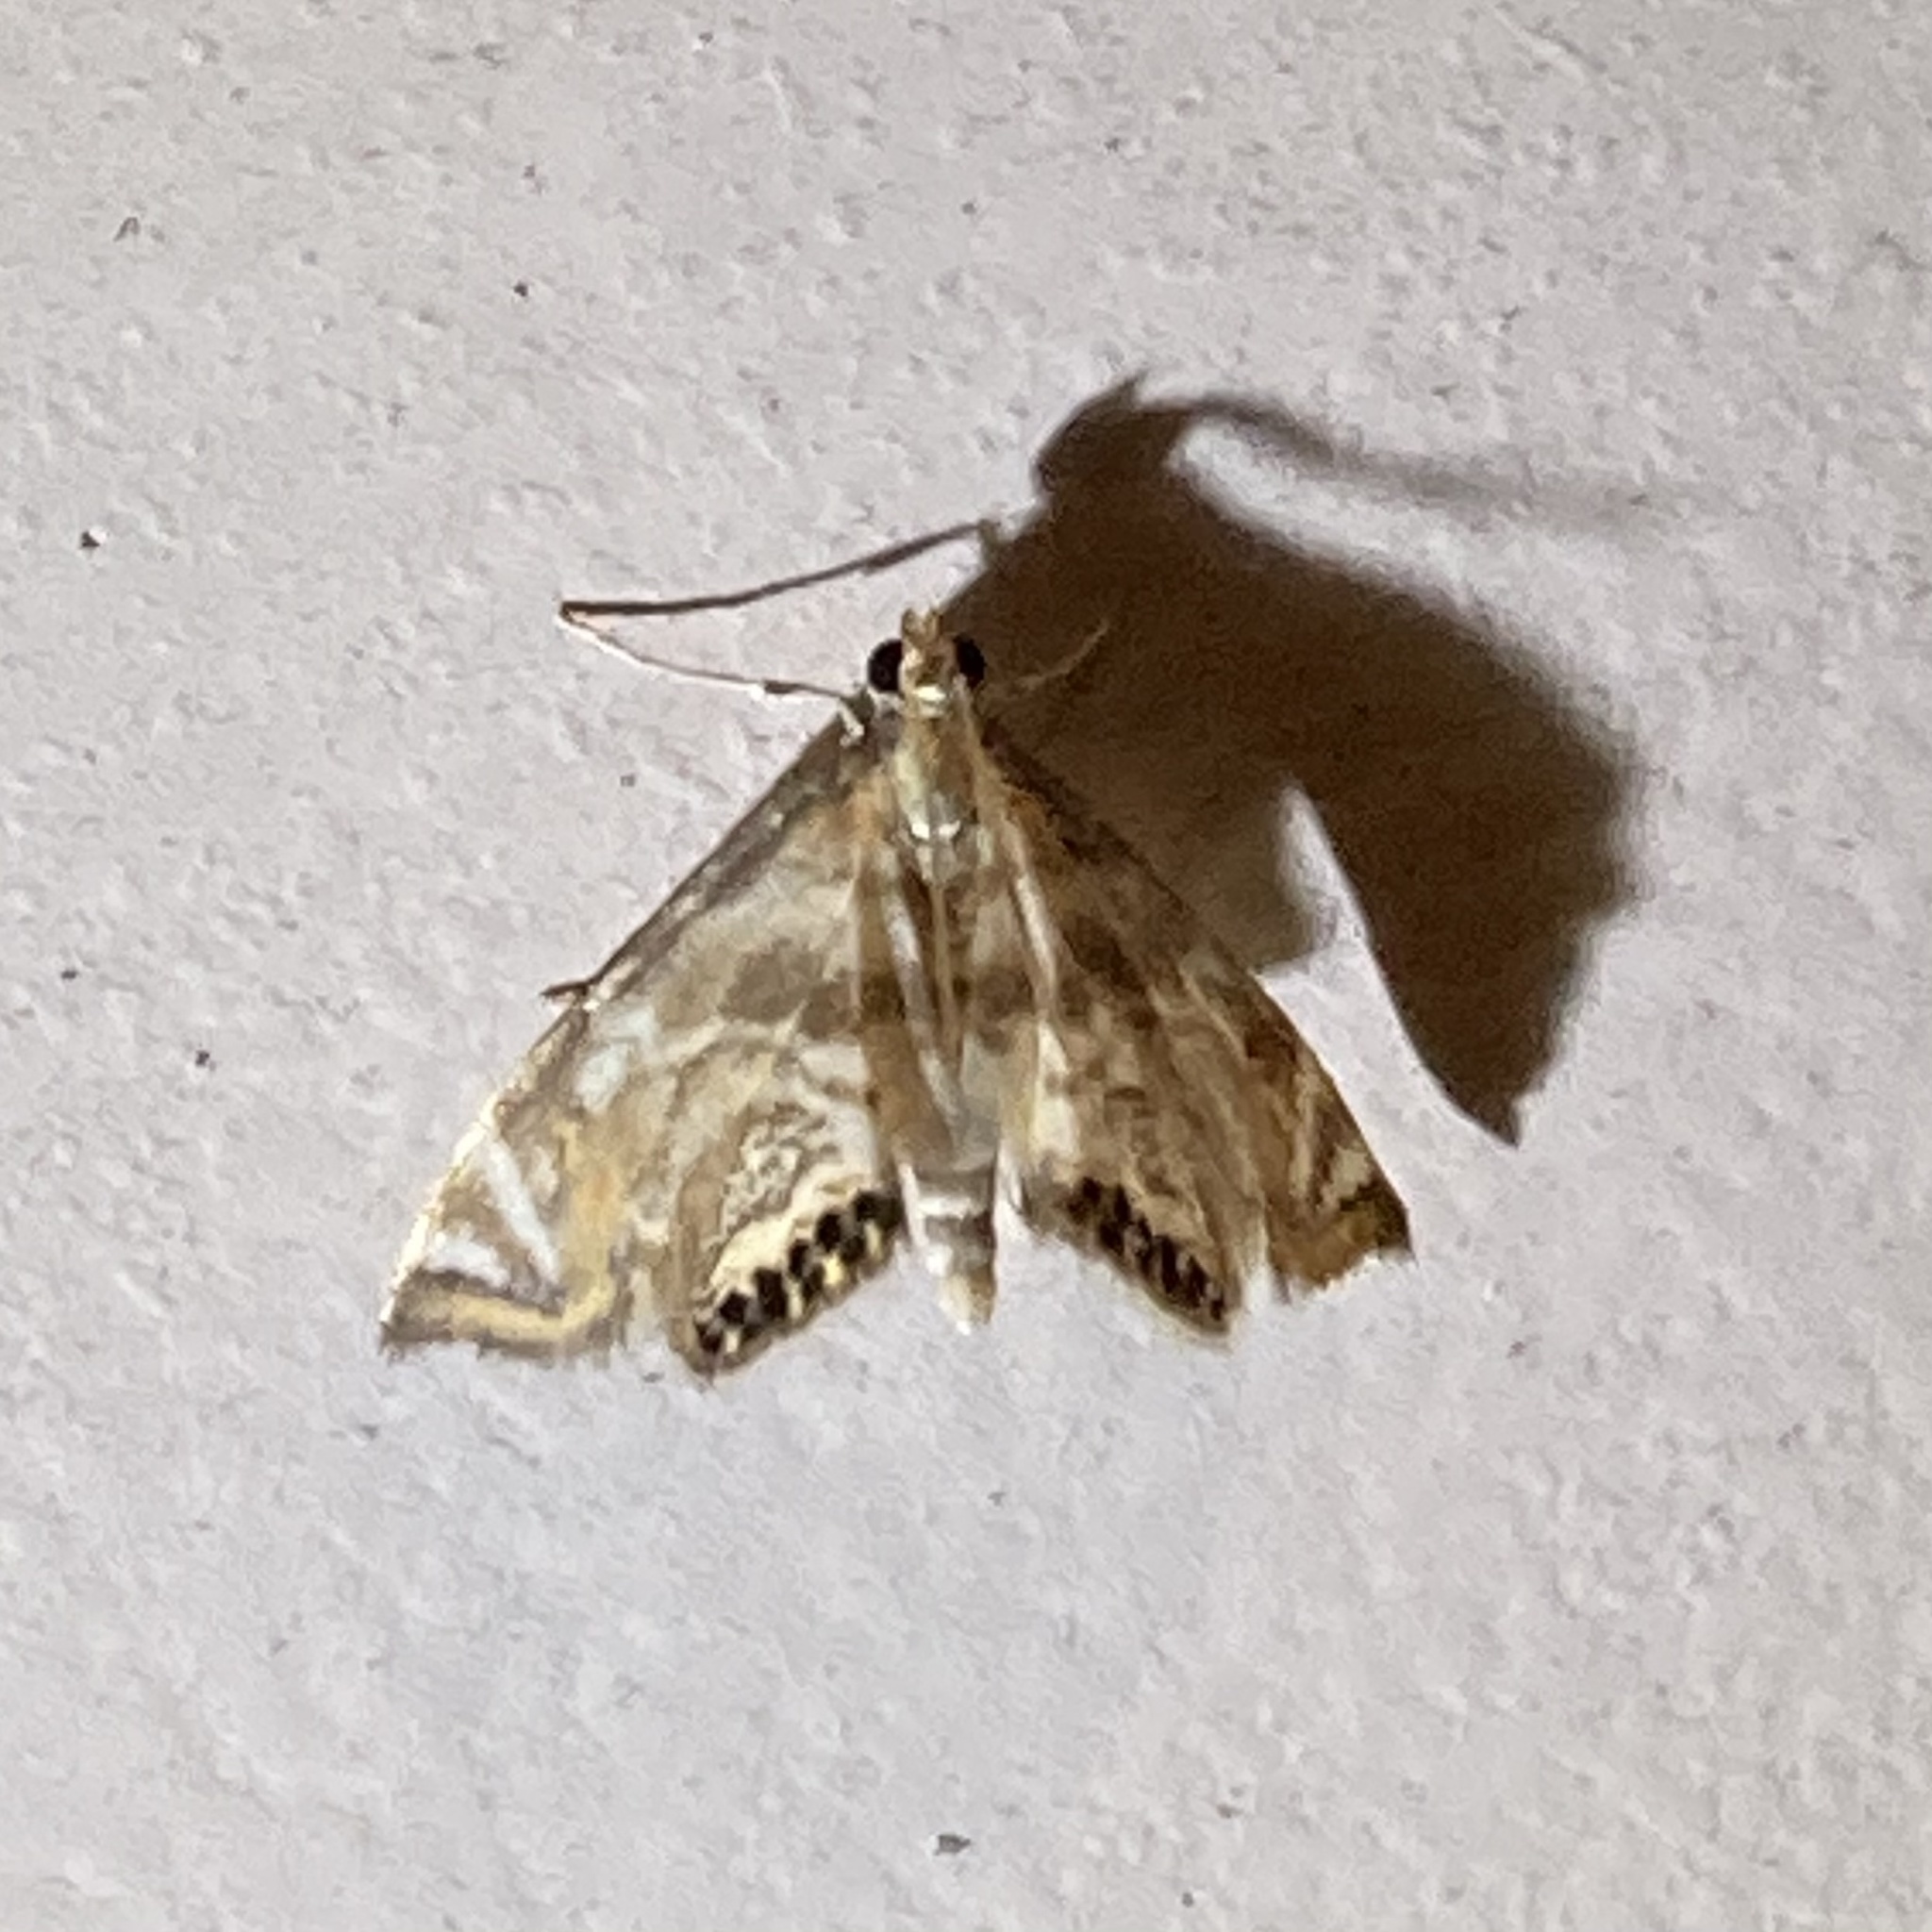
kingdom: Animalia
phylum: Arthropoda
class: Insecta
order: Lepidoptera
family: Crambidae
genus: Petrophila
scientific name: Petrophila canadensis
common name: Canadian petrophila
